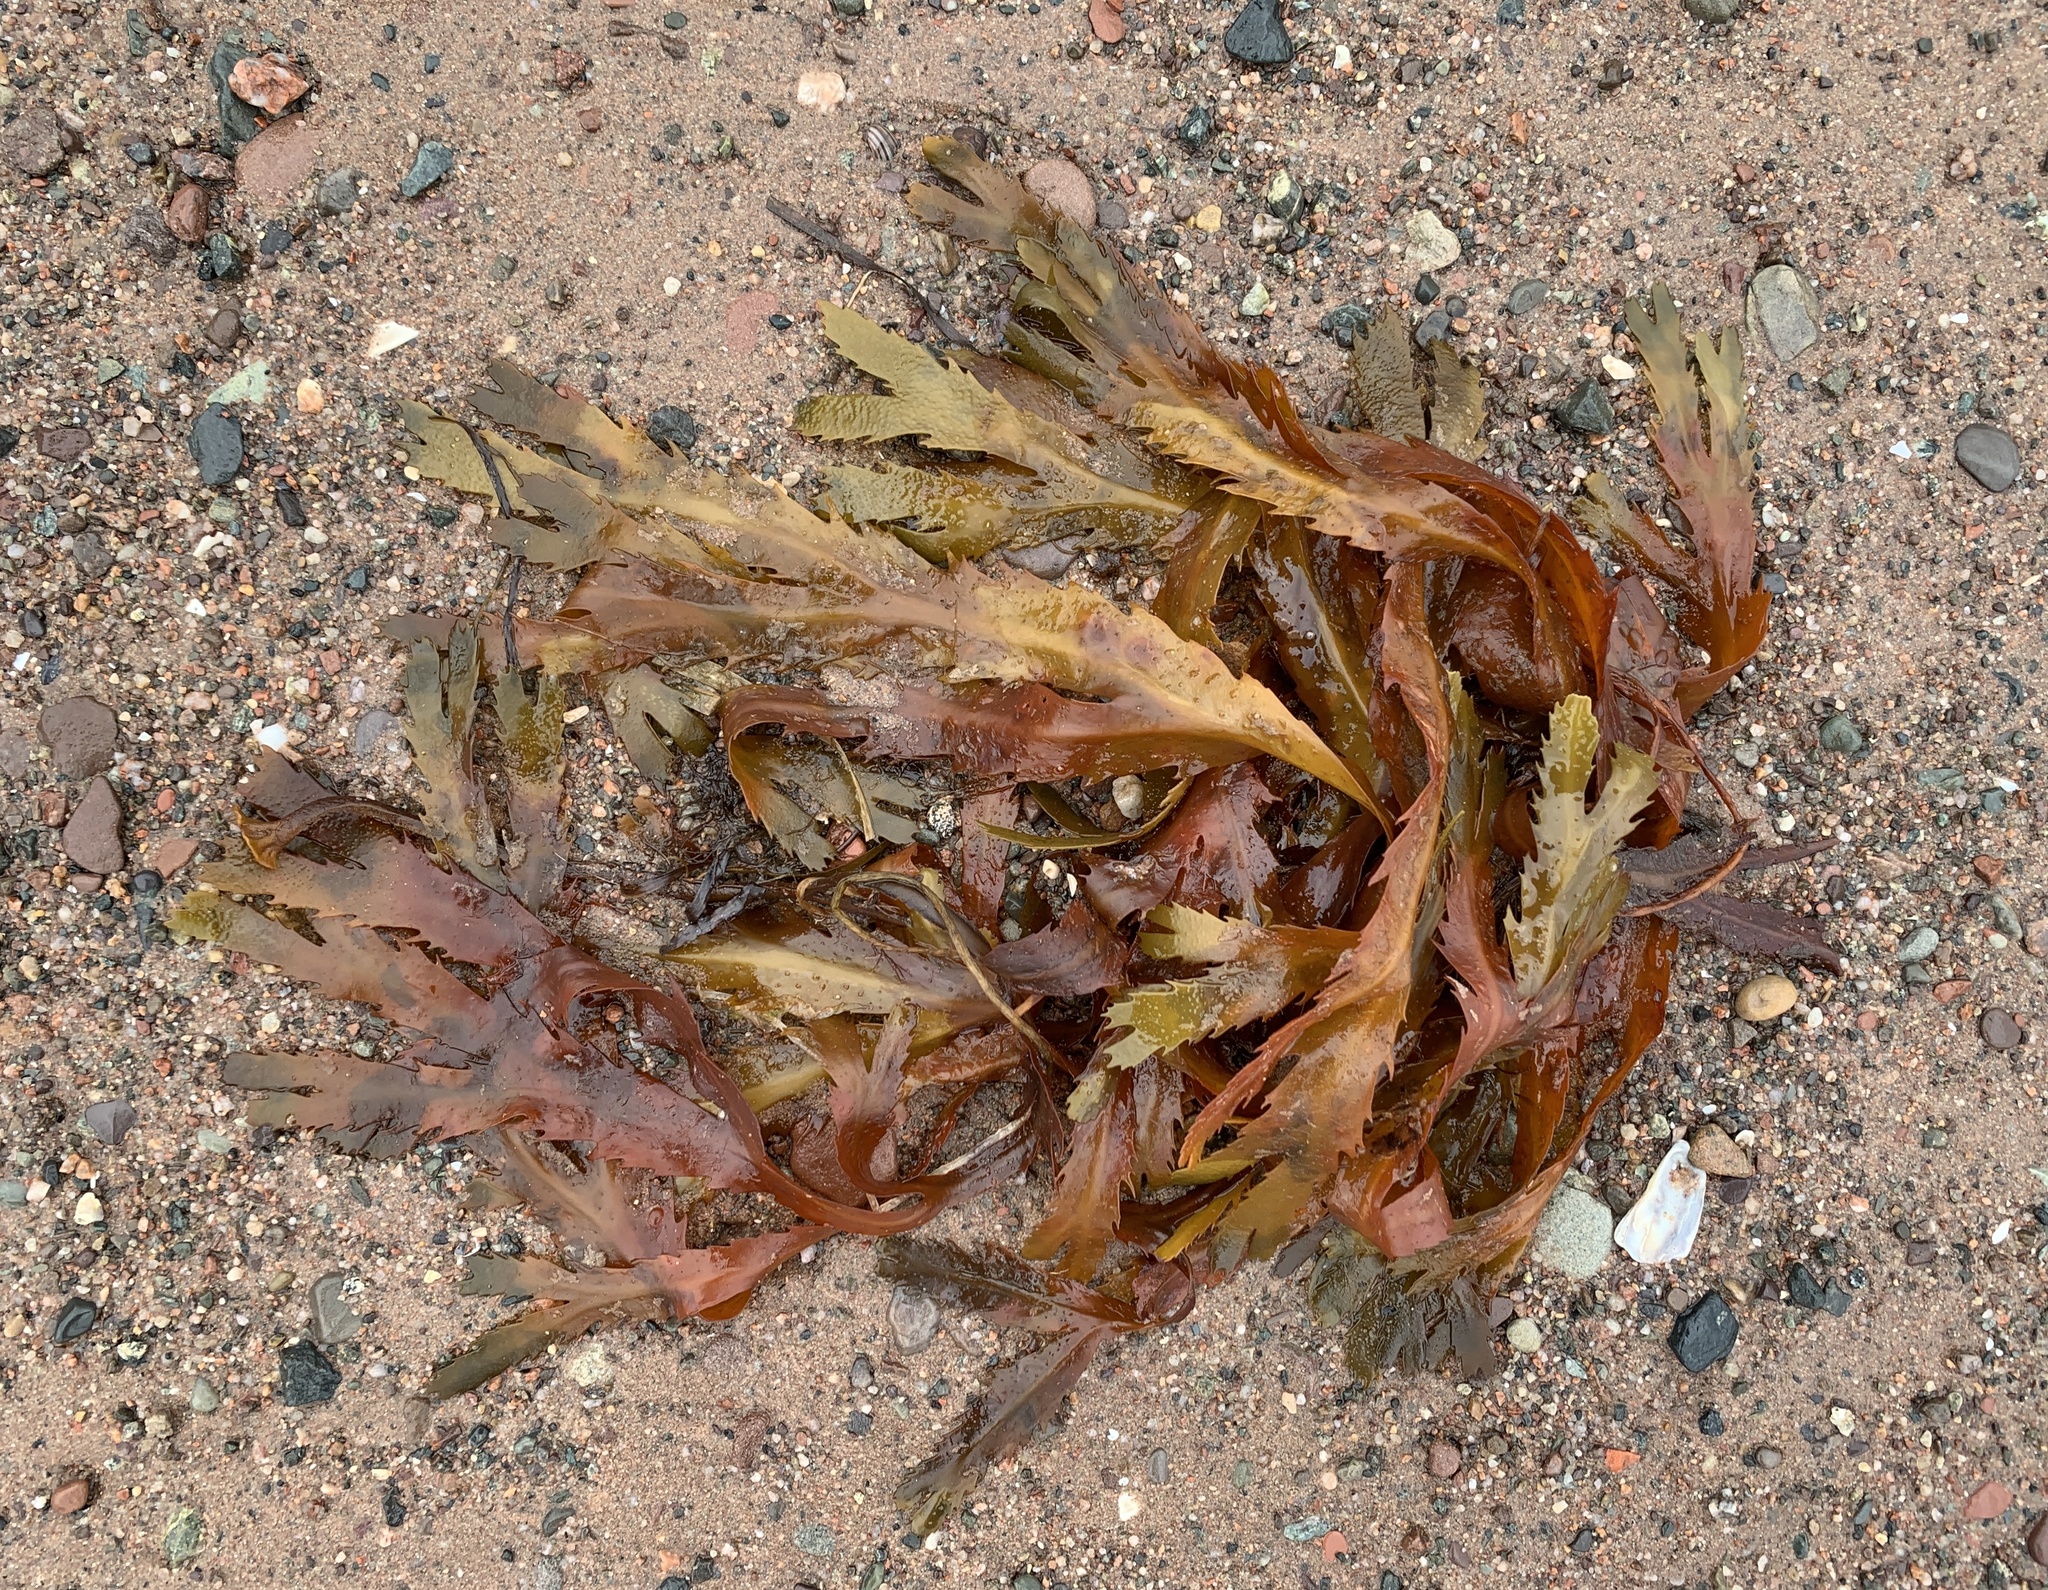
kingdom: Chromista
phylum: Ochrophyta
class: Phaeophyceae
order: Fucales
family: Fucaceae
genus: Fucus
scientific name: Fucus serratus
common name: Toothed wrack
